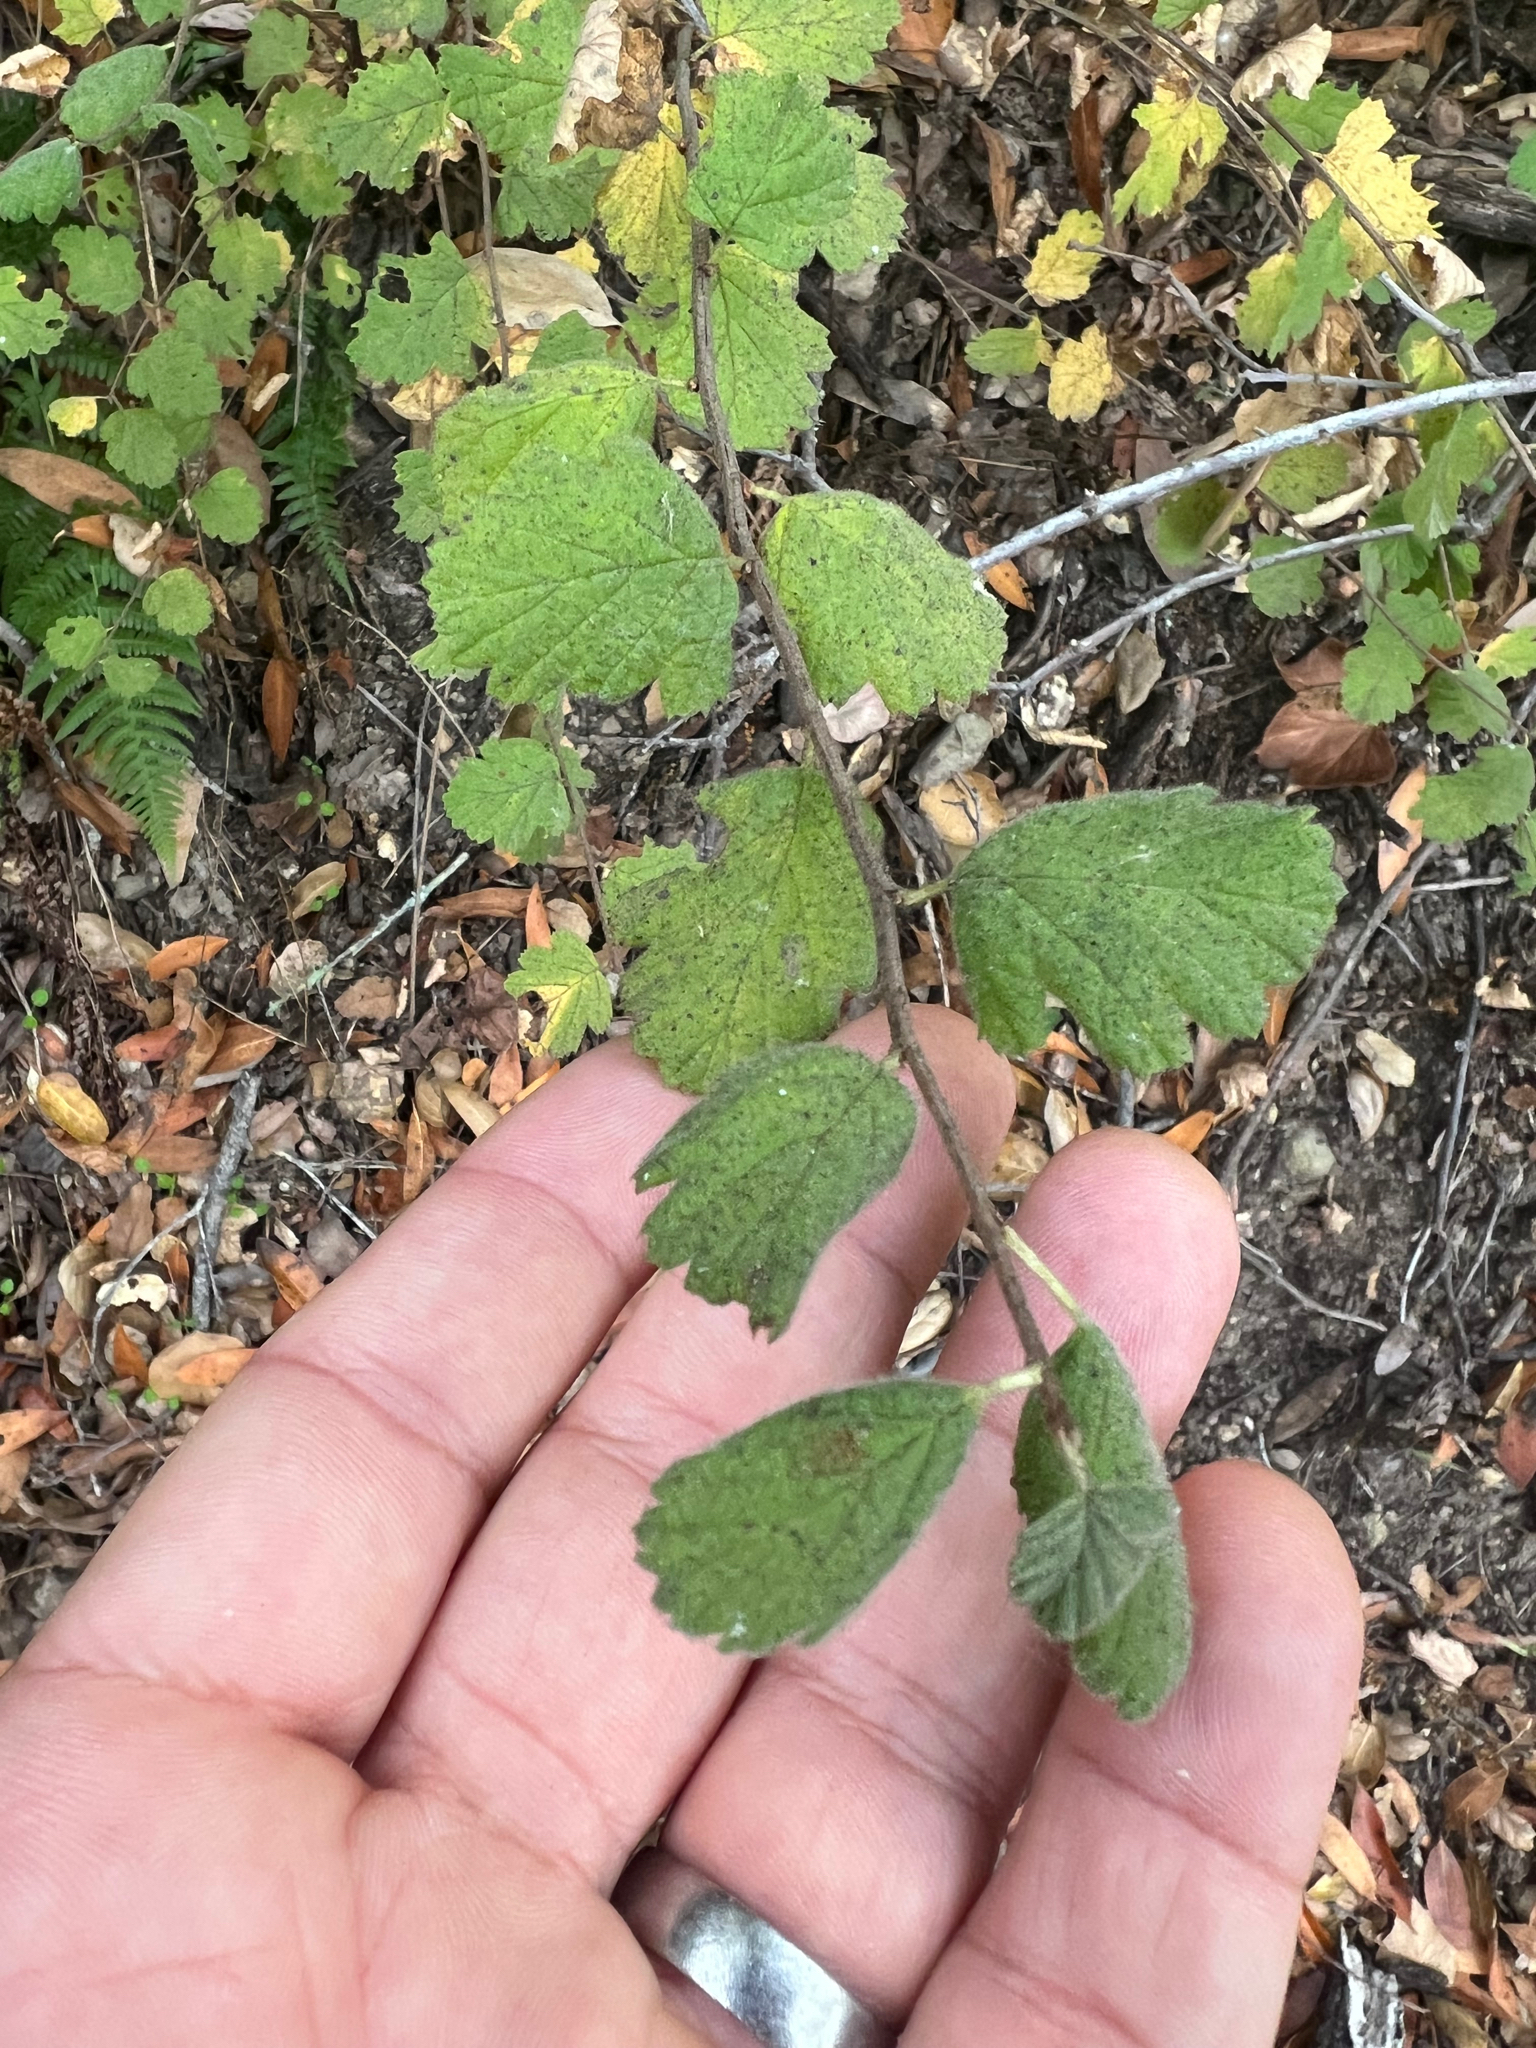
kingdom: Plantae
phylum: Tracheophyta
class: Magnoliopsida
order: Rosales
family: Rosaceae
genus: Holodiscus
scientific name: Holodiscus discolor
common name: Oceanspray
